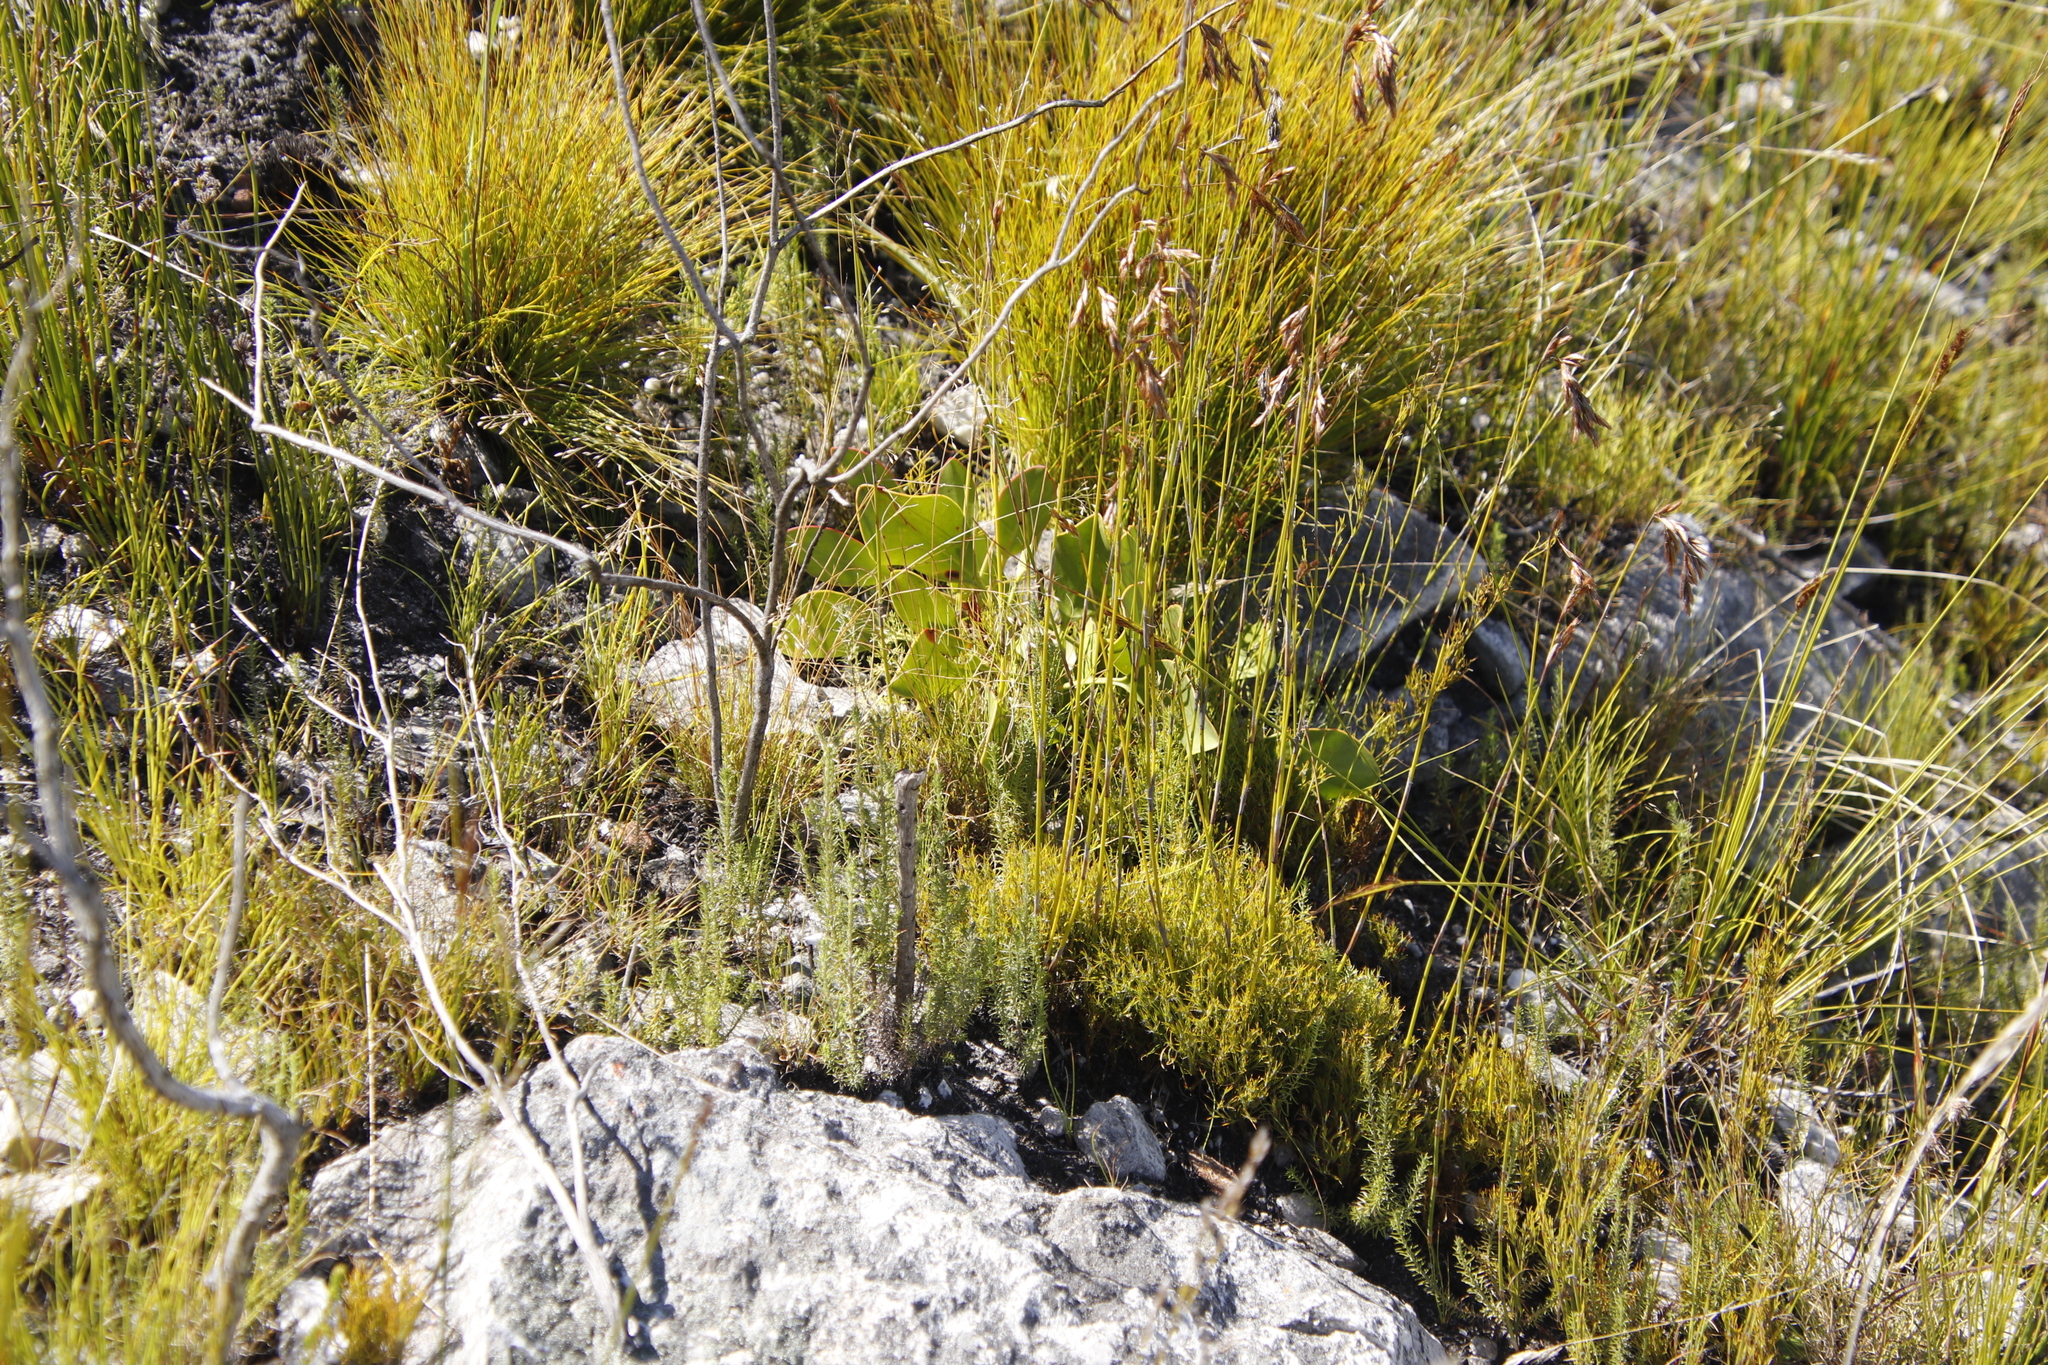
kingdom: Plantae
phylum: Tracheophyta
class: Magnoliopsida
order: Proteales
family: Proteaceae
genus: Protea
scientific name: Protea cynaroides
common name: King protea
